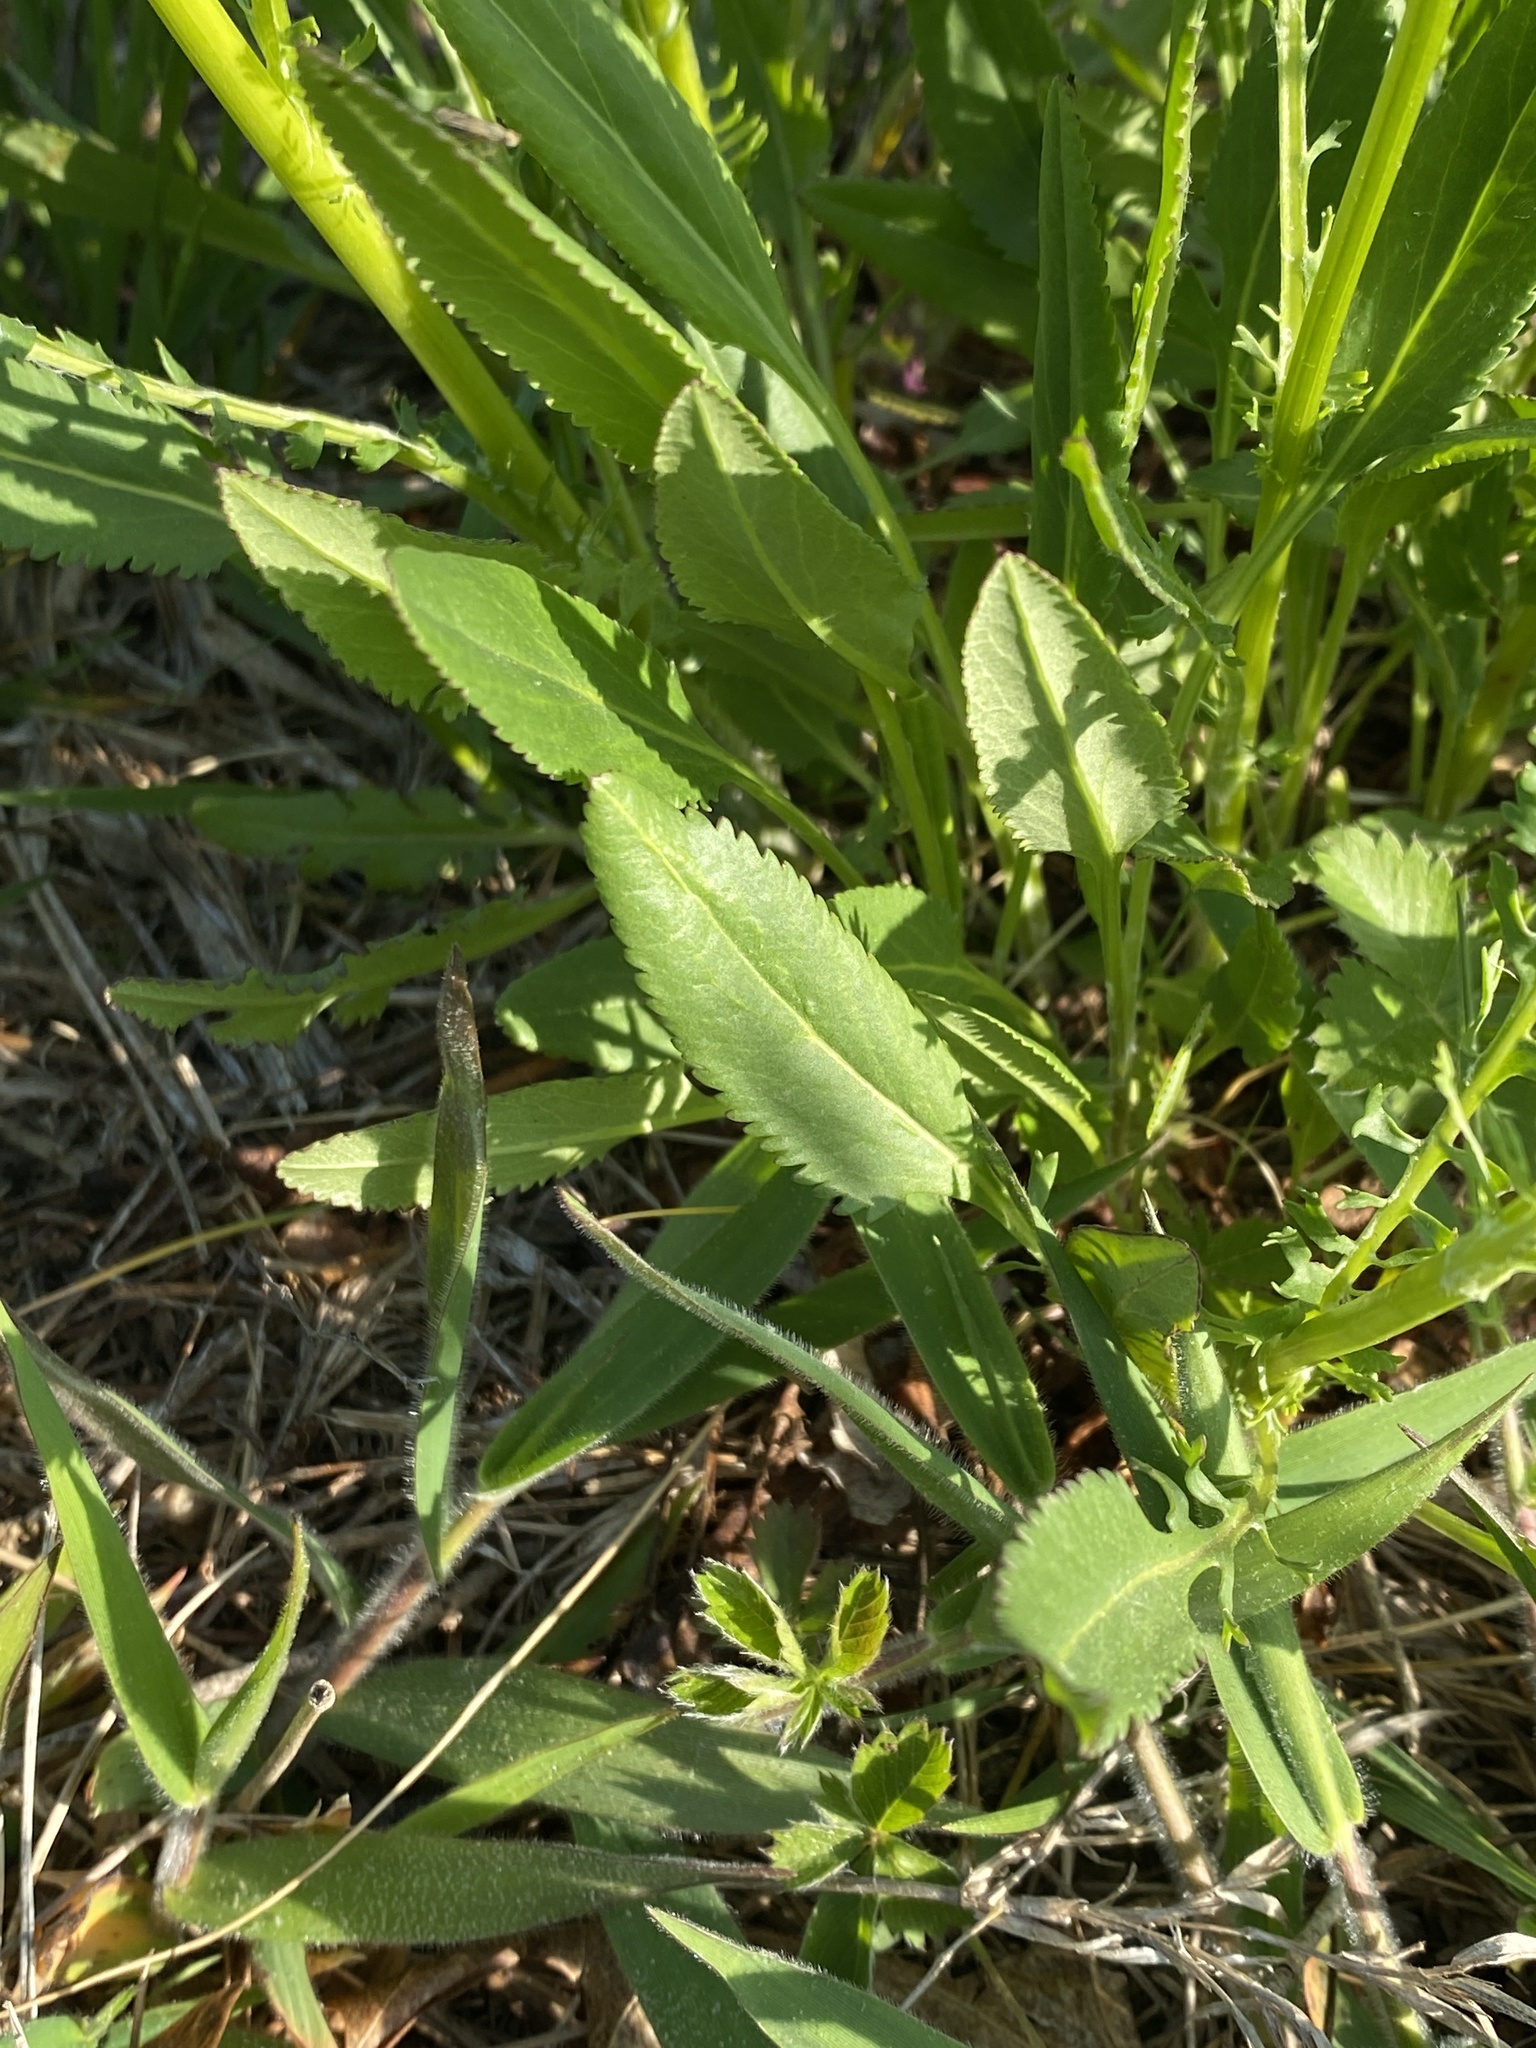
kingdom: Plantae
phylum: Tracheophyta
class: Magnoliopsida
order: Asterales
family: Asteraceae
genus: Packera
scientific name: Packera anonyma
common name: Small ragwort
